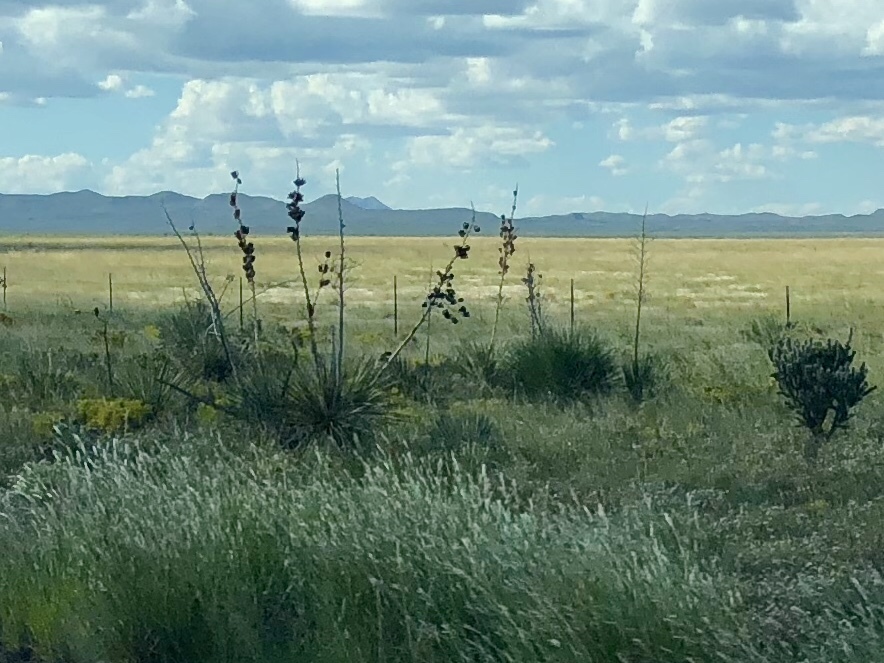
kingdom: Plantae
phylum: Tracheophyta
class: Liliopsida
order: Asparagales
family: Asparagaceae
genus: Yucca
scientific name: Yucca elata
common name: Palmella
